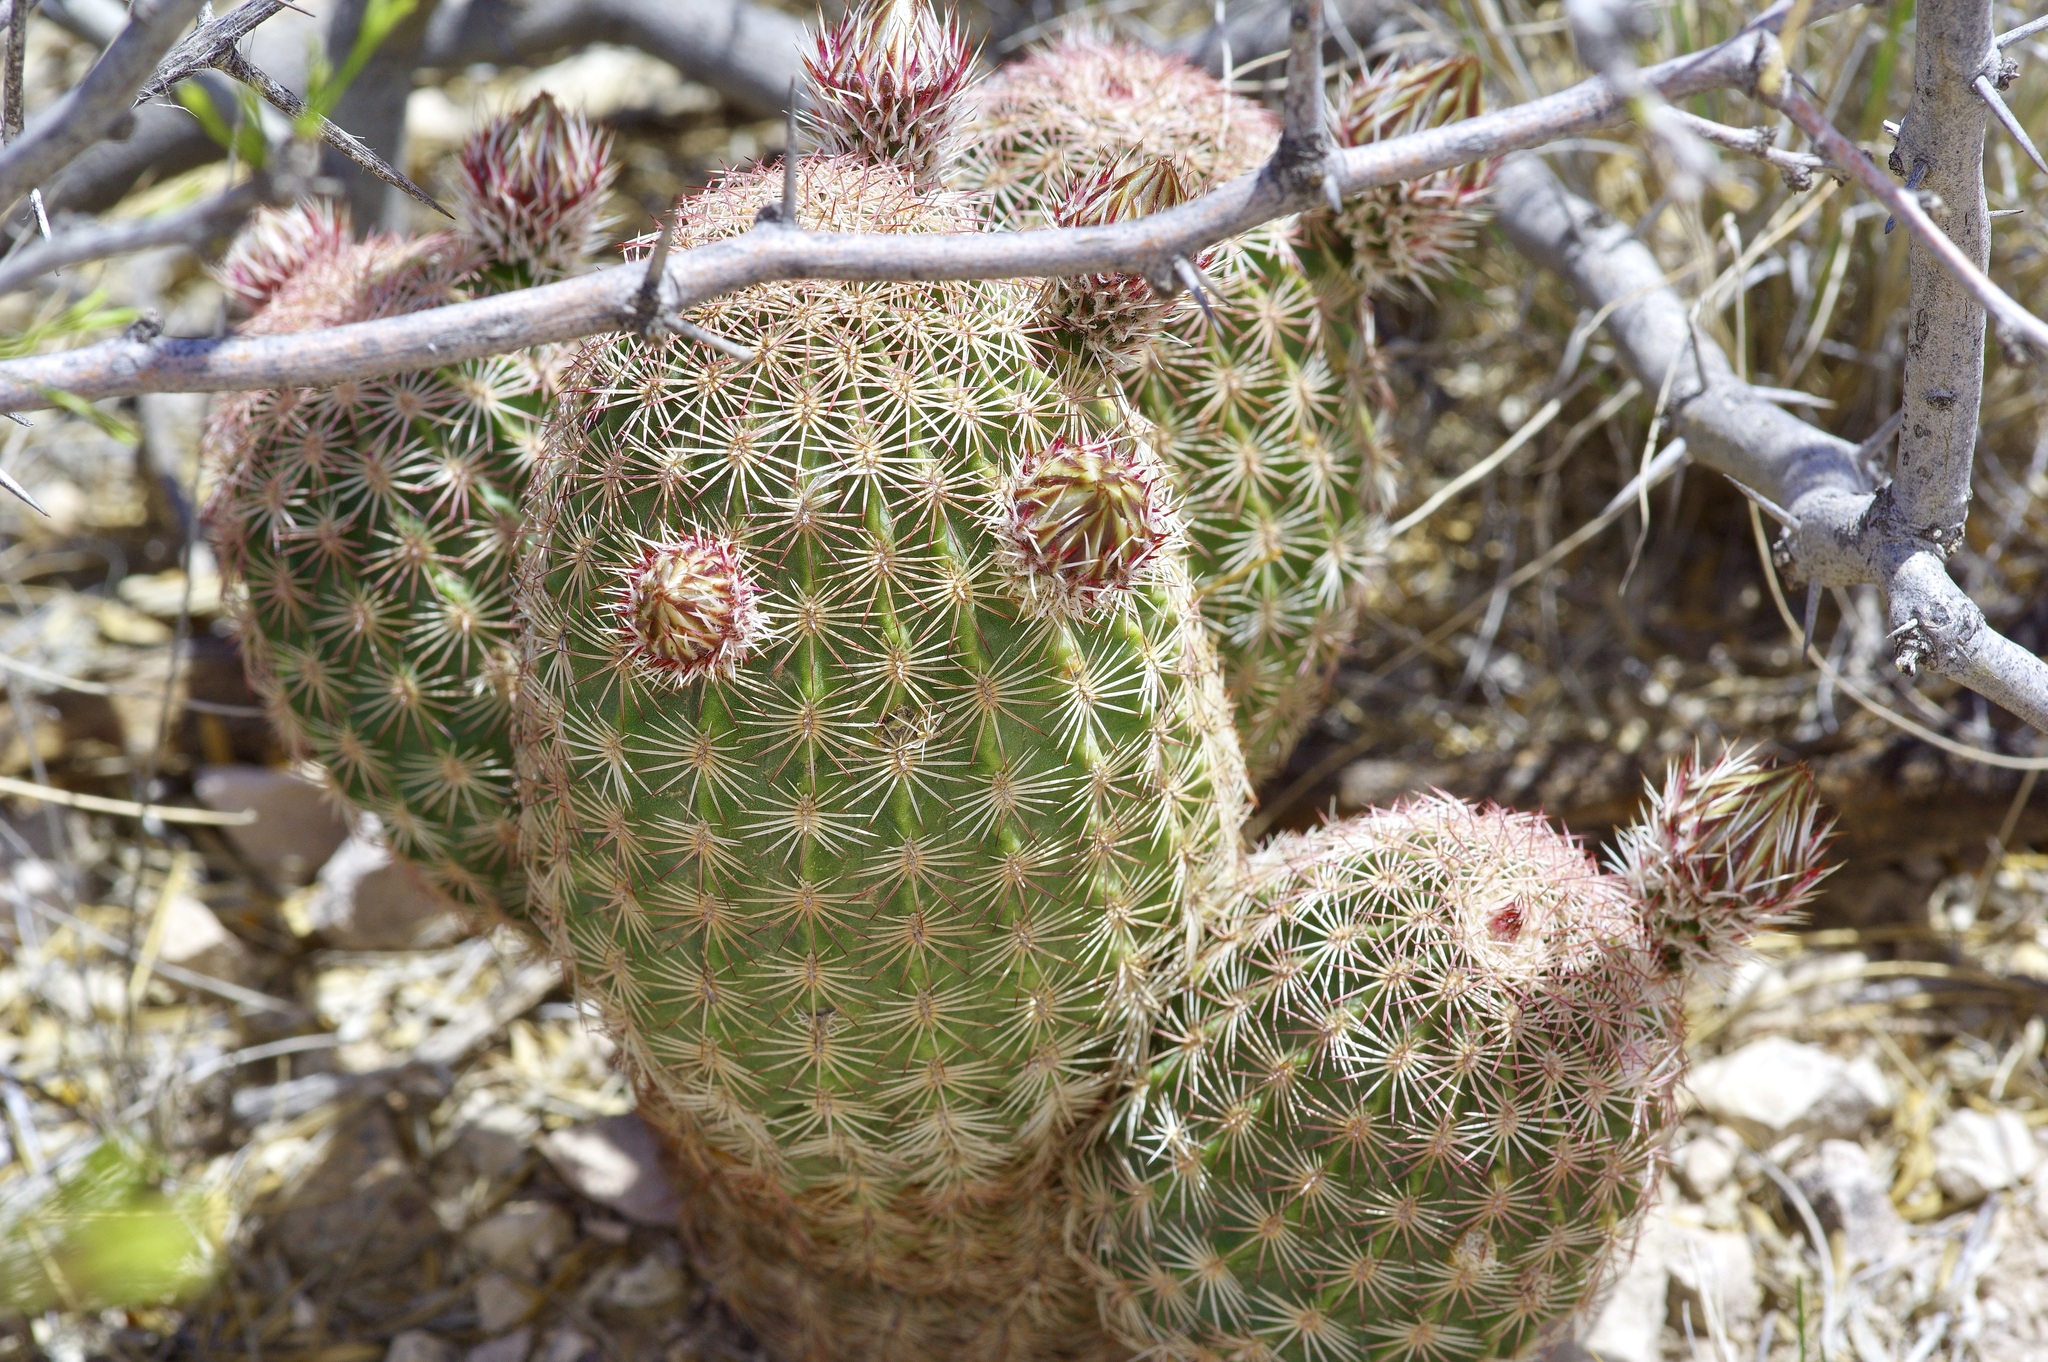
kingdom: Plantae
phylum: Tracheophyta
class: Magnoliopsida
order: Caryophyllales
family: Cactaceae
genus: Echinocereus
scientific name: Echinocereus
